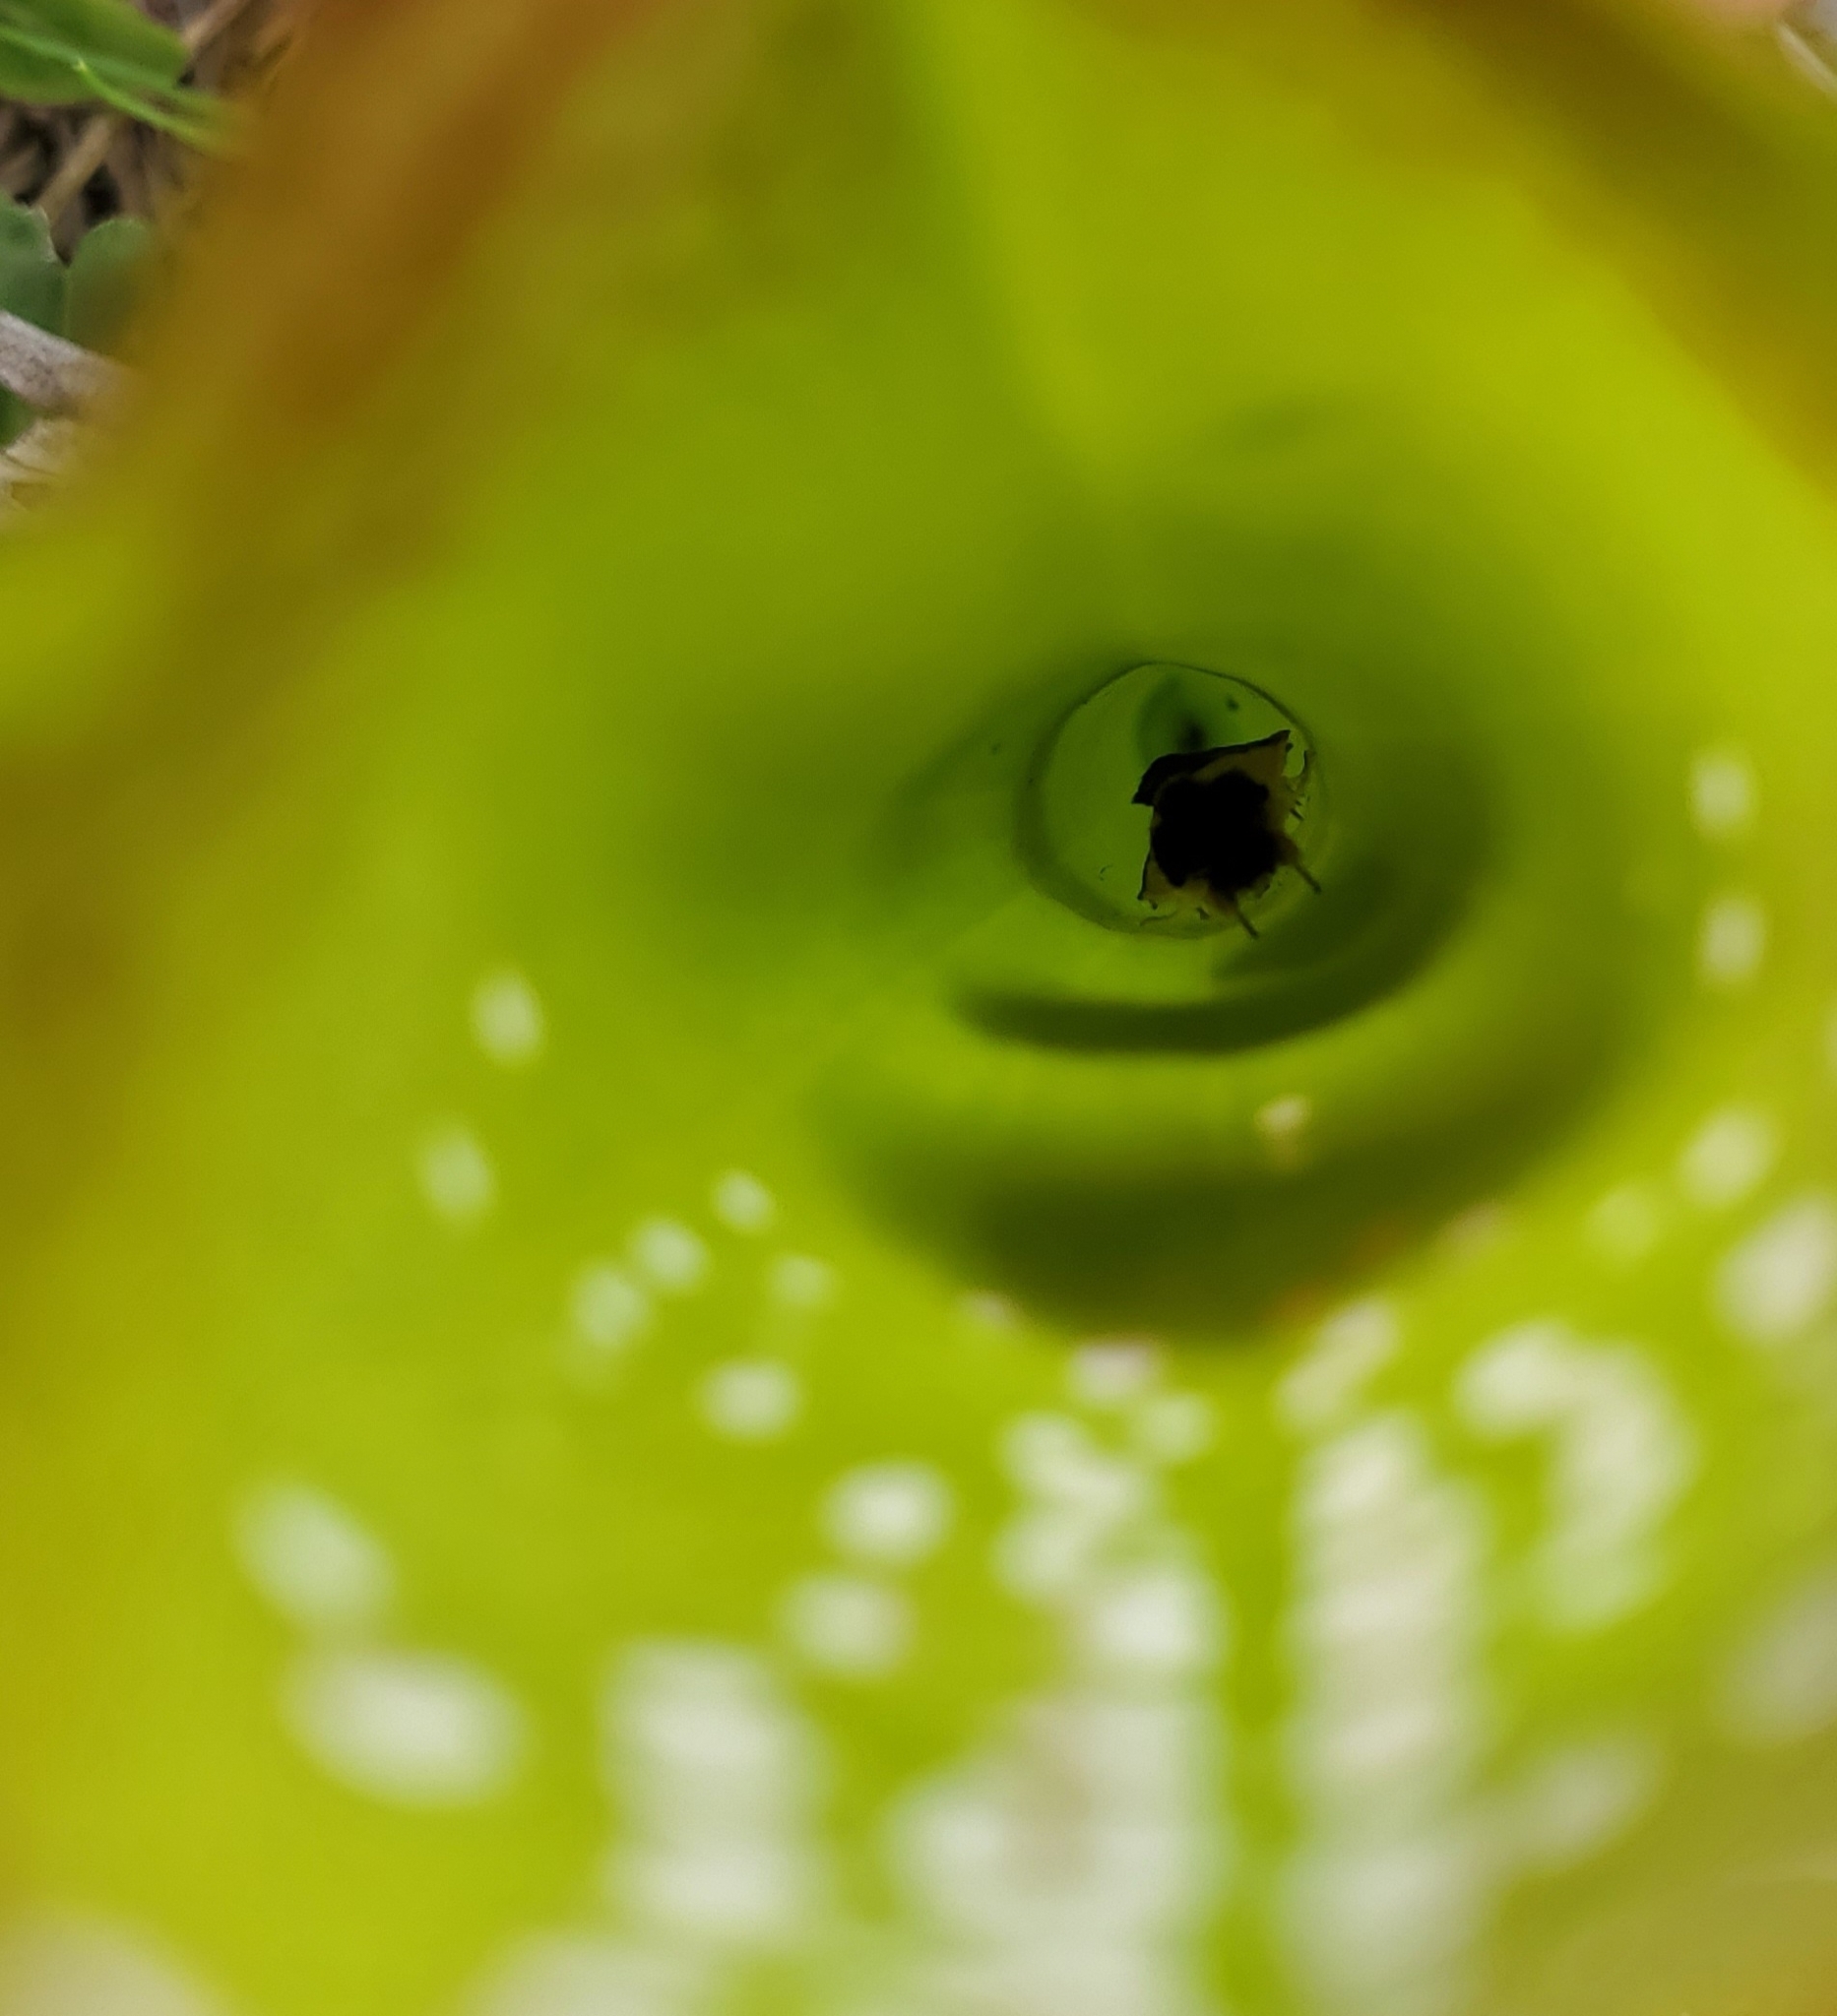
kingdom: Animalia
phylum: Arthropoda
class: Insecta
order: Lepidoptera
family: Noctuidae
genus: Exyra
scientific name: Exyra semicrocea
